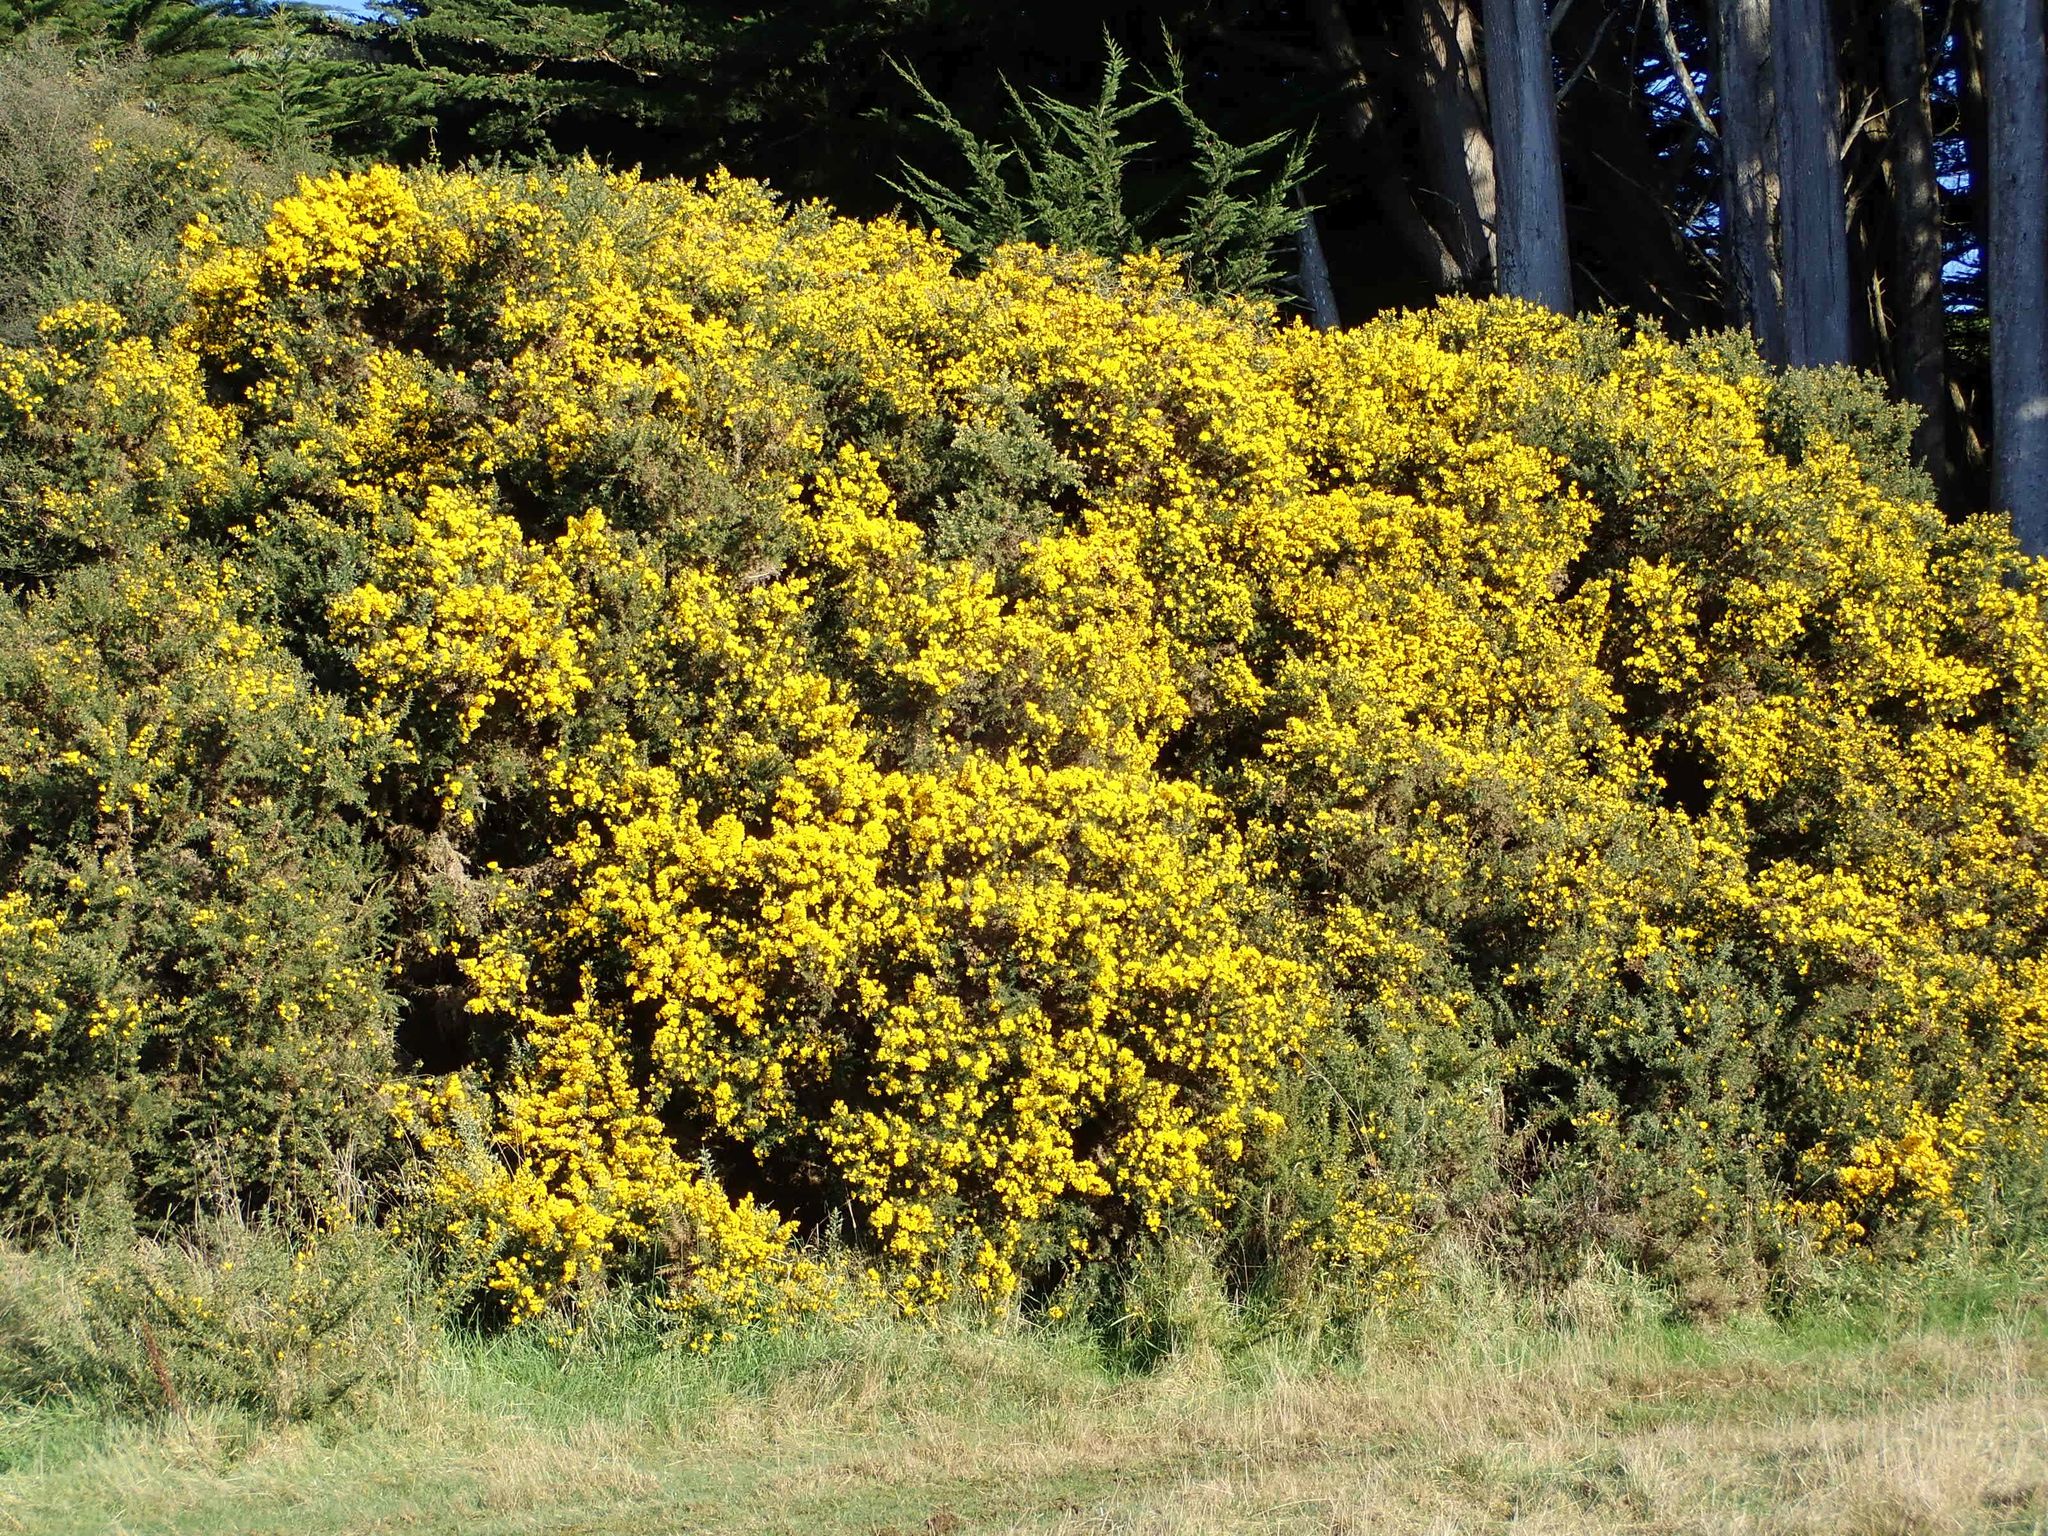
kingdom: Plantae
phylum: Tracheophyta
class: Magnoliopsida
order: Fabales
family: Fabaceae
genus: Ulex
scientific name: Ulex europaeus
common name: Common gorse
